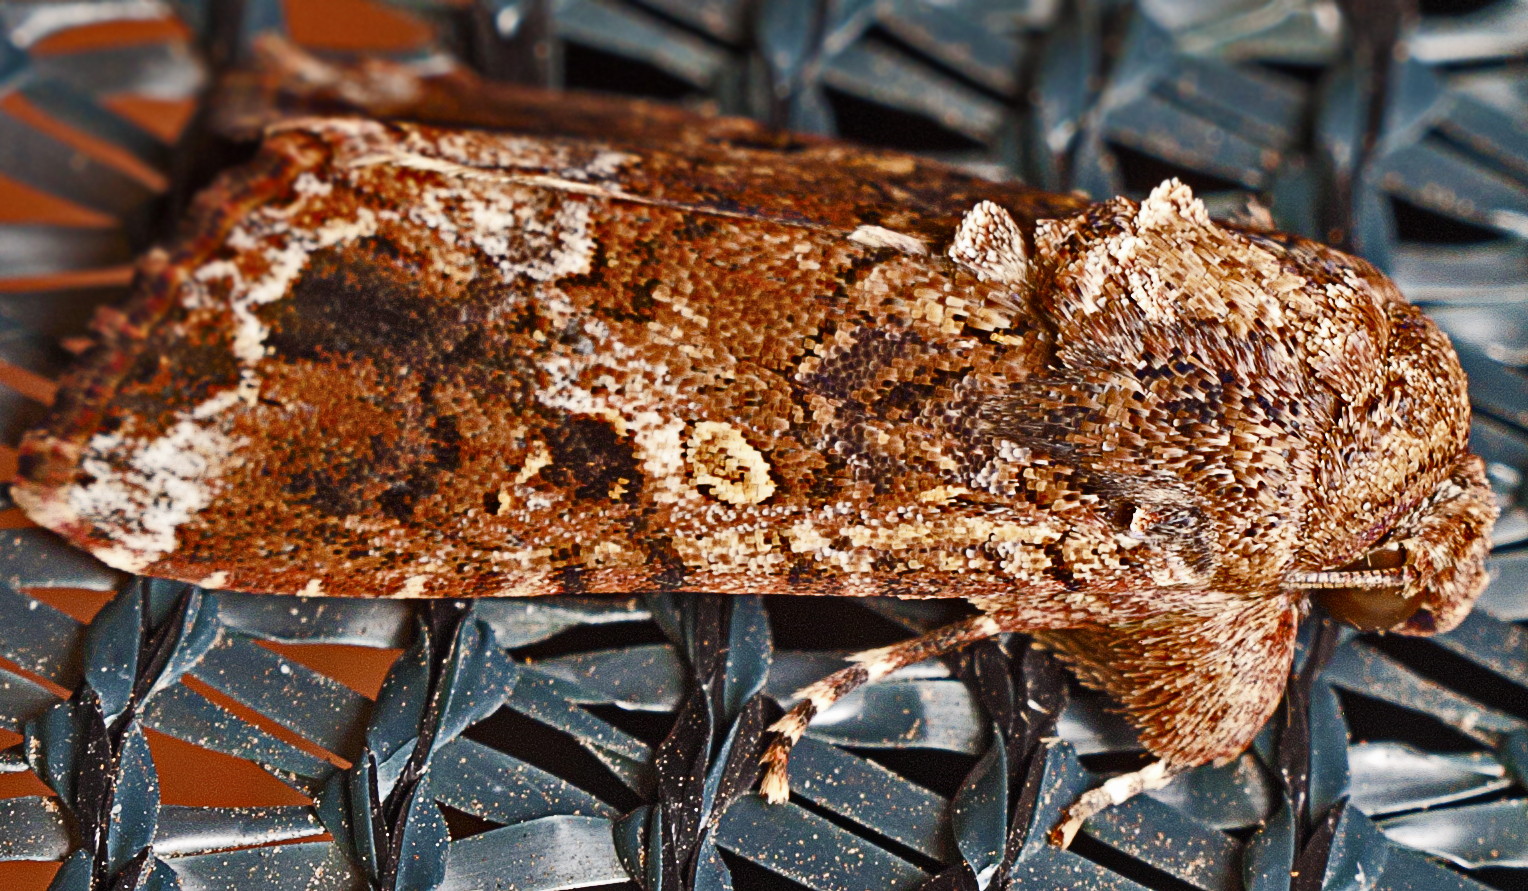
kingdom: Animalia
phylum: Arthropoda
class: Insecta
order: Lepidoptera
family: Noctuidae
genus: Spodoptera
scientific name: Spodoptera mauritia
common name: Lawn armyworm
